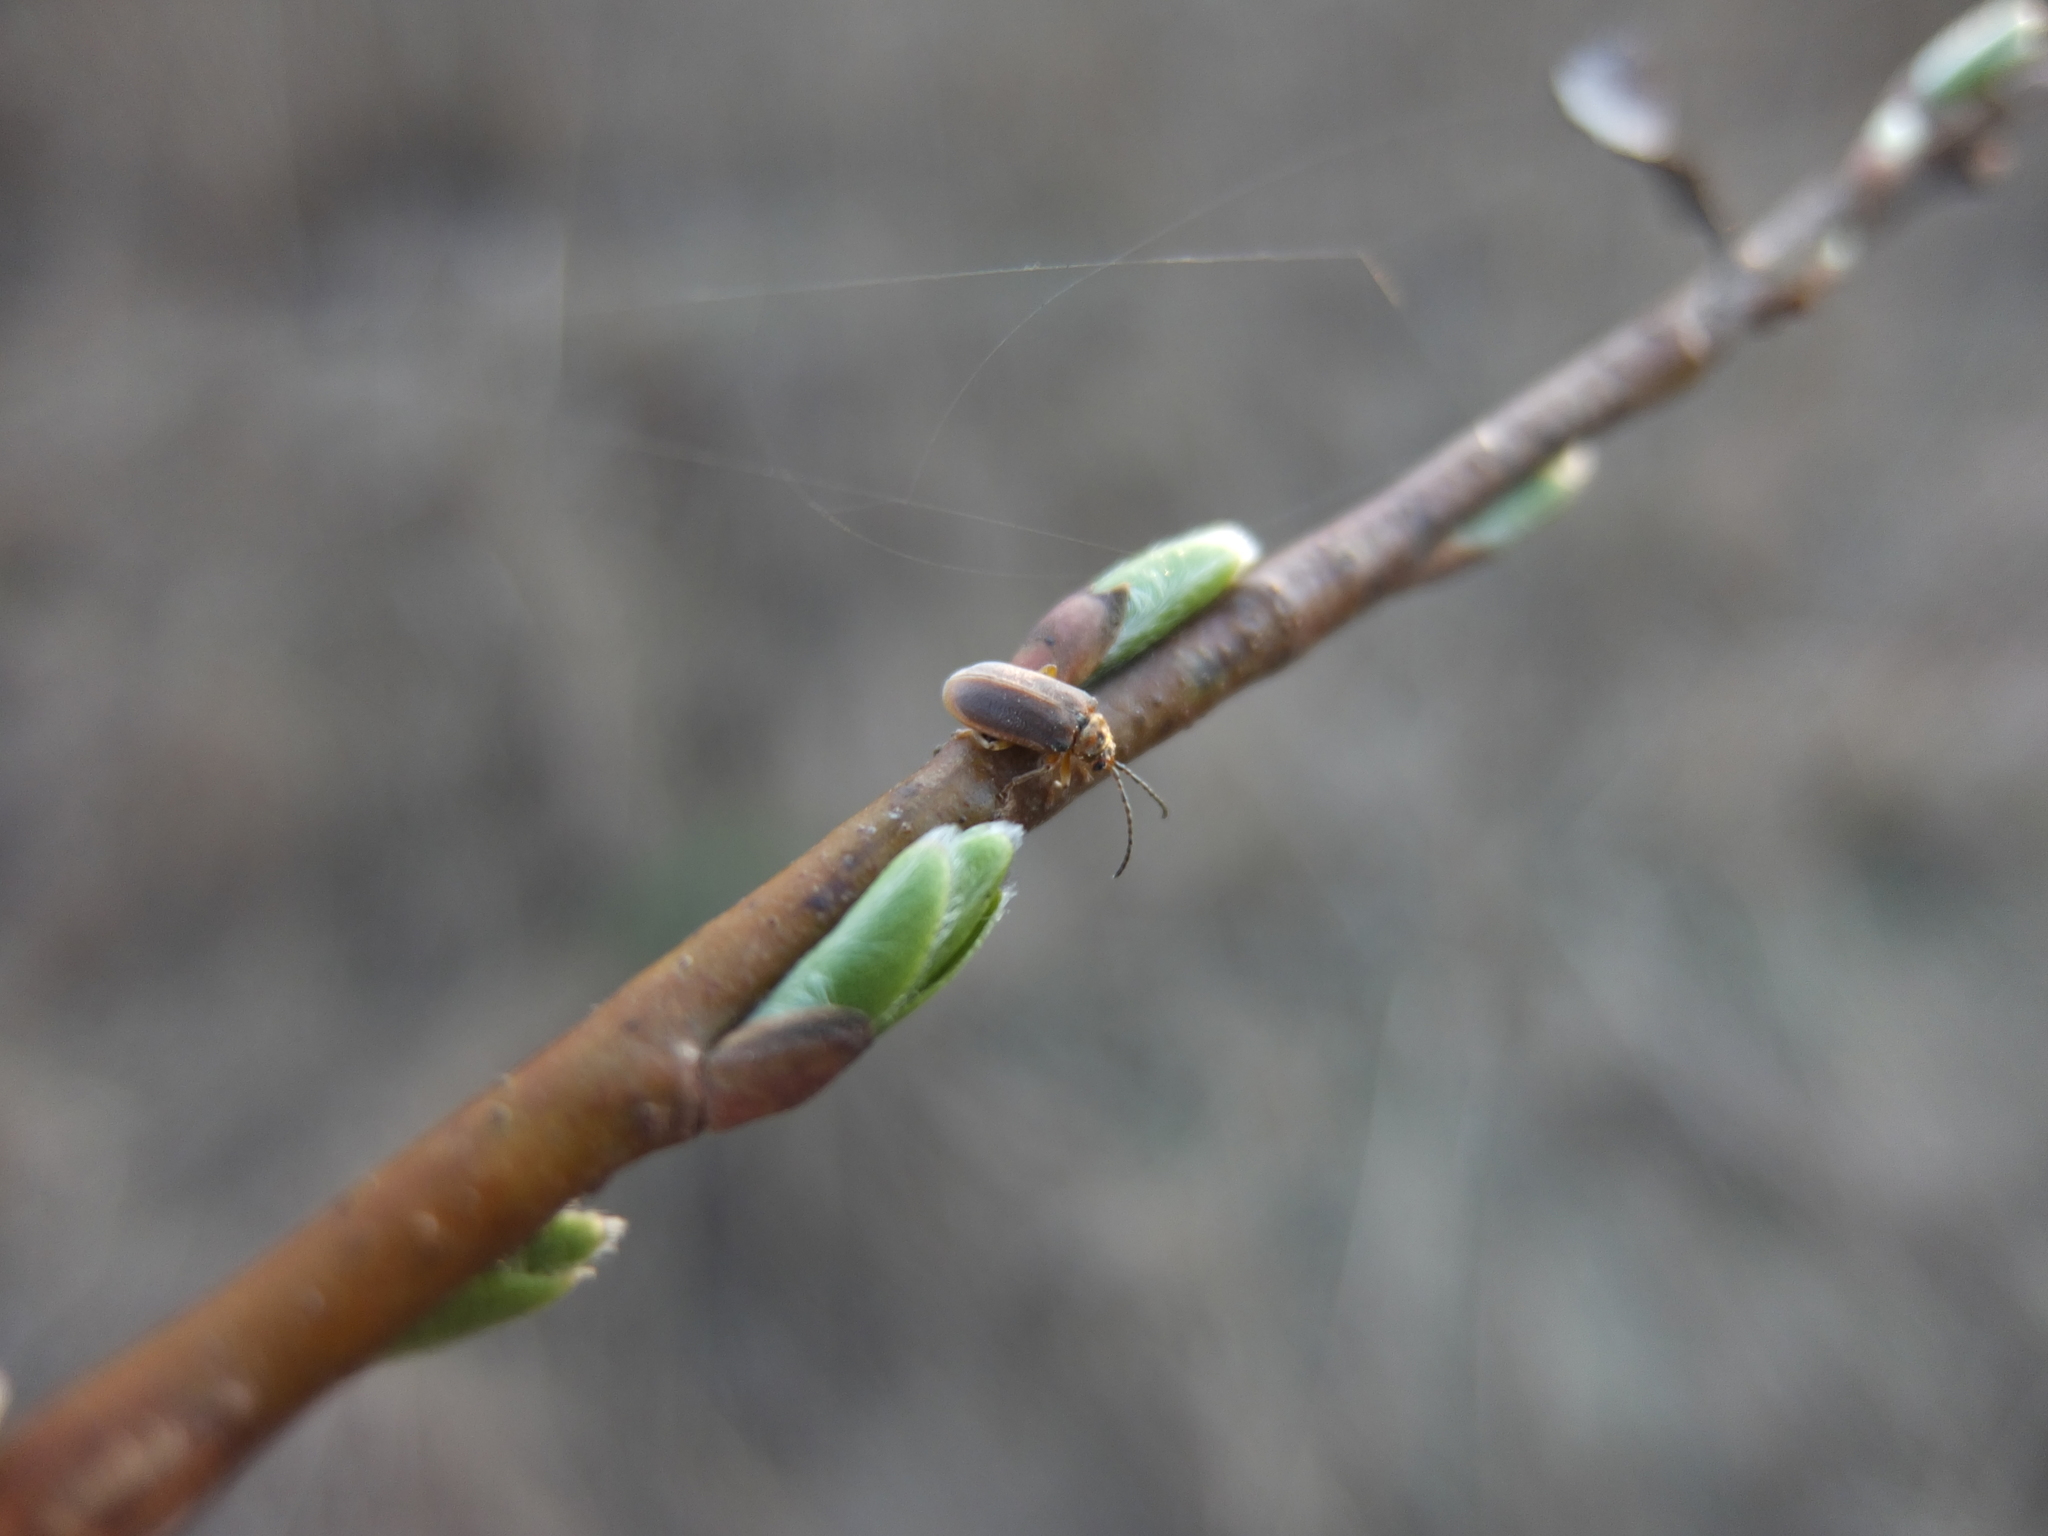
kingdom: Animalia
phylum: Arthropoda
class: Insecta
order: Coleoptera
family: Chrysomelidae
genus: Galerucella
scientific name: Galerucella lineola
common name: Brown willow beetle
